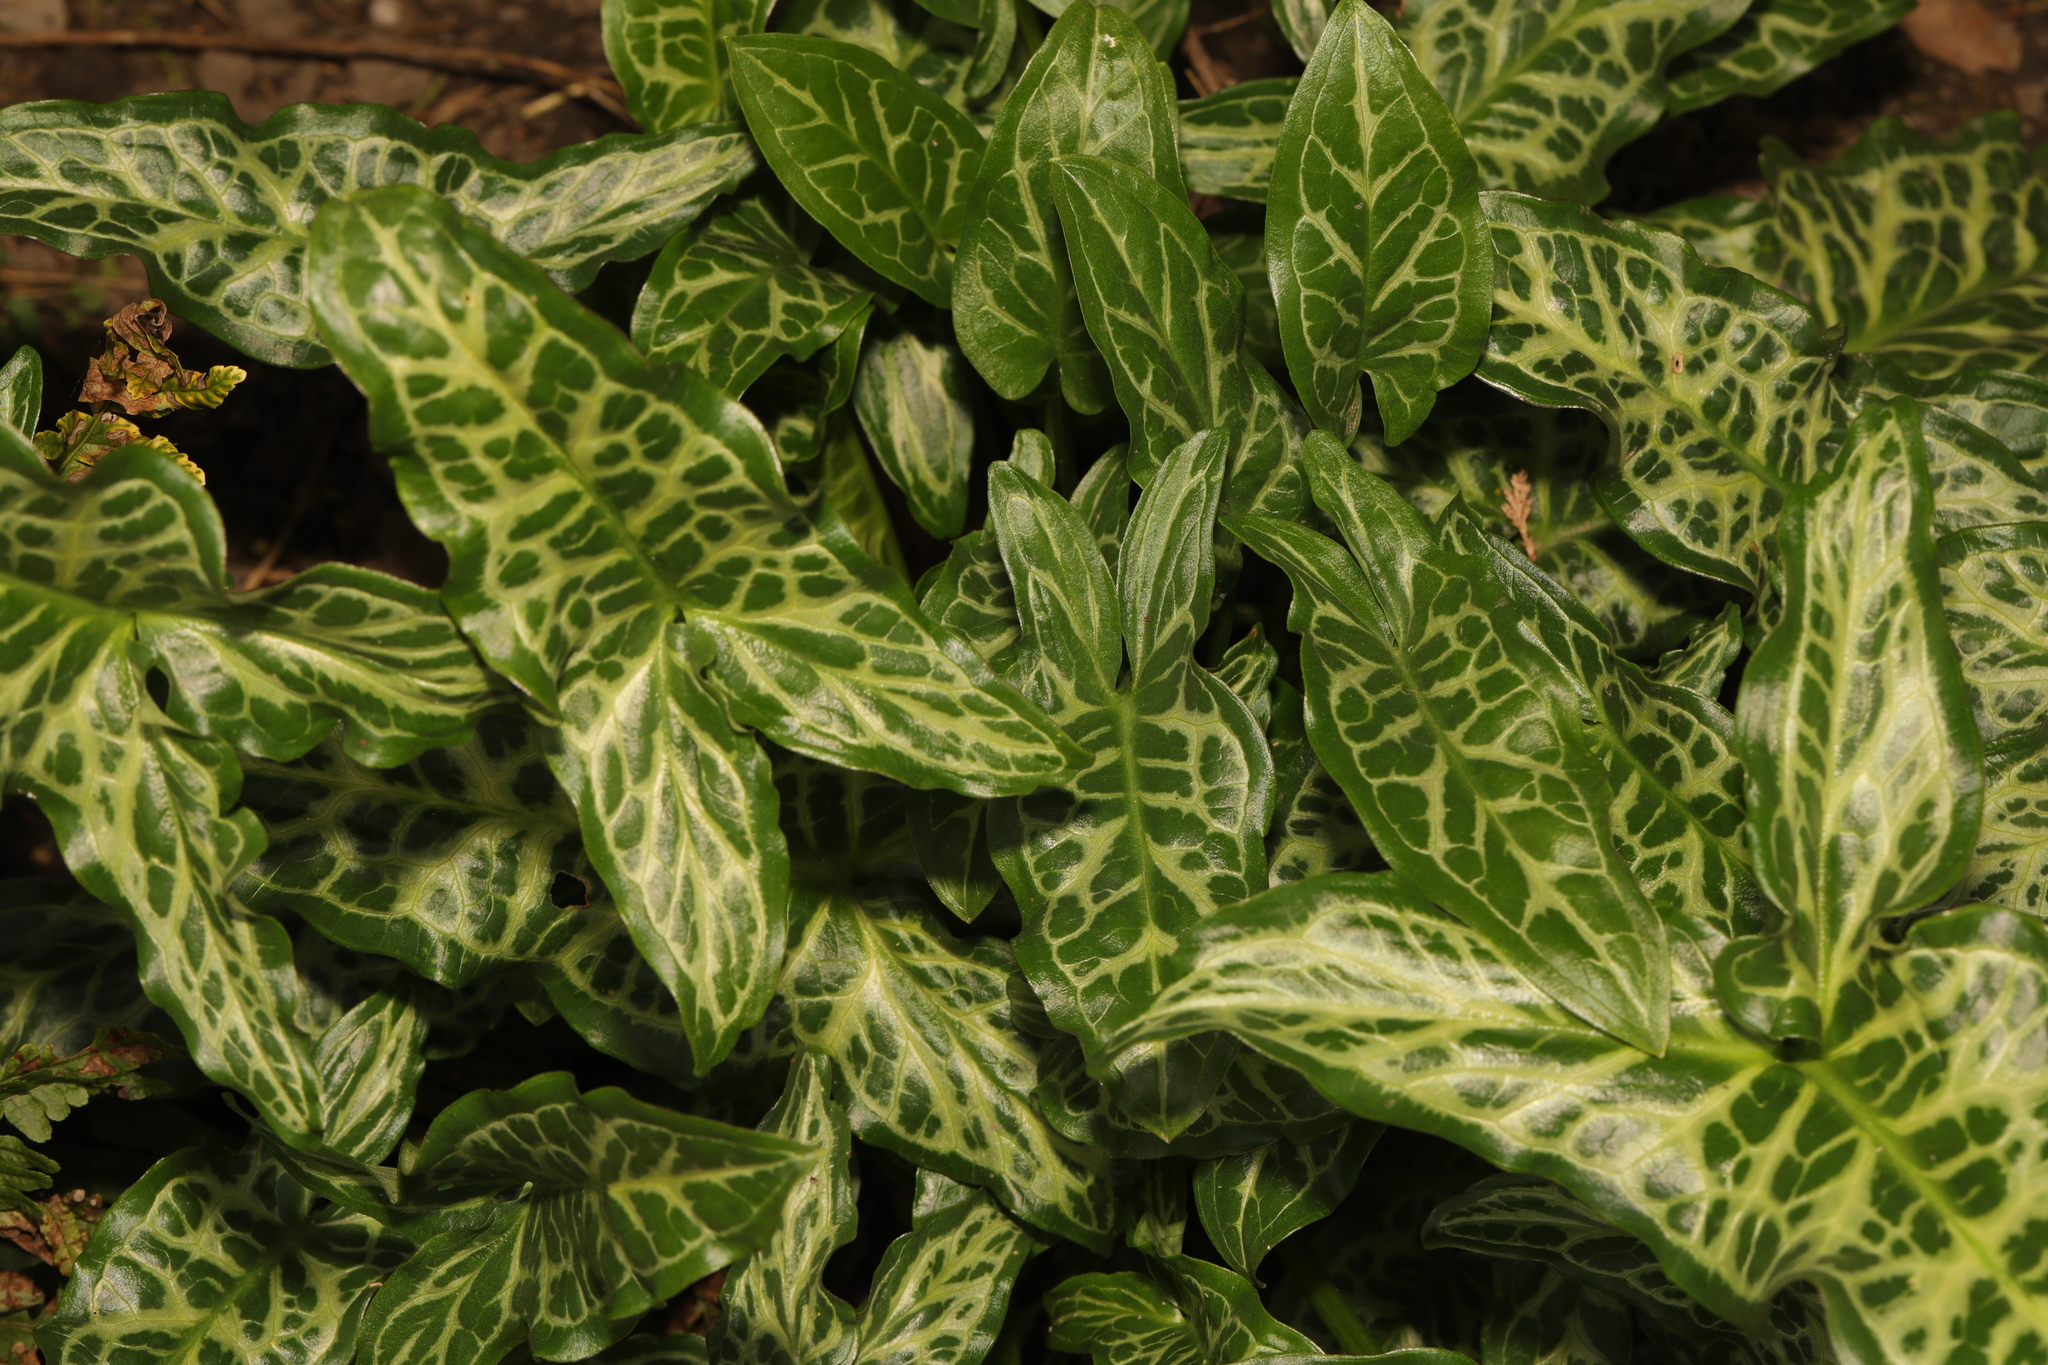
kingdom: Plantae
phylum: Tracheophyta
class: Liliopsida
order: Alismatales
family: Araceae
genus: Arum
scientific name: Arum italicum
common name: Italian lords-and-ladies
